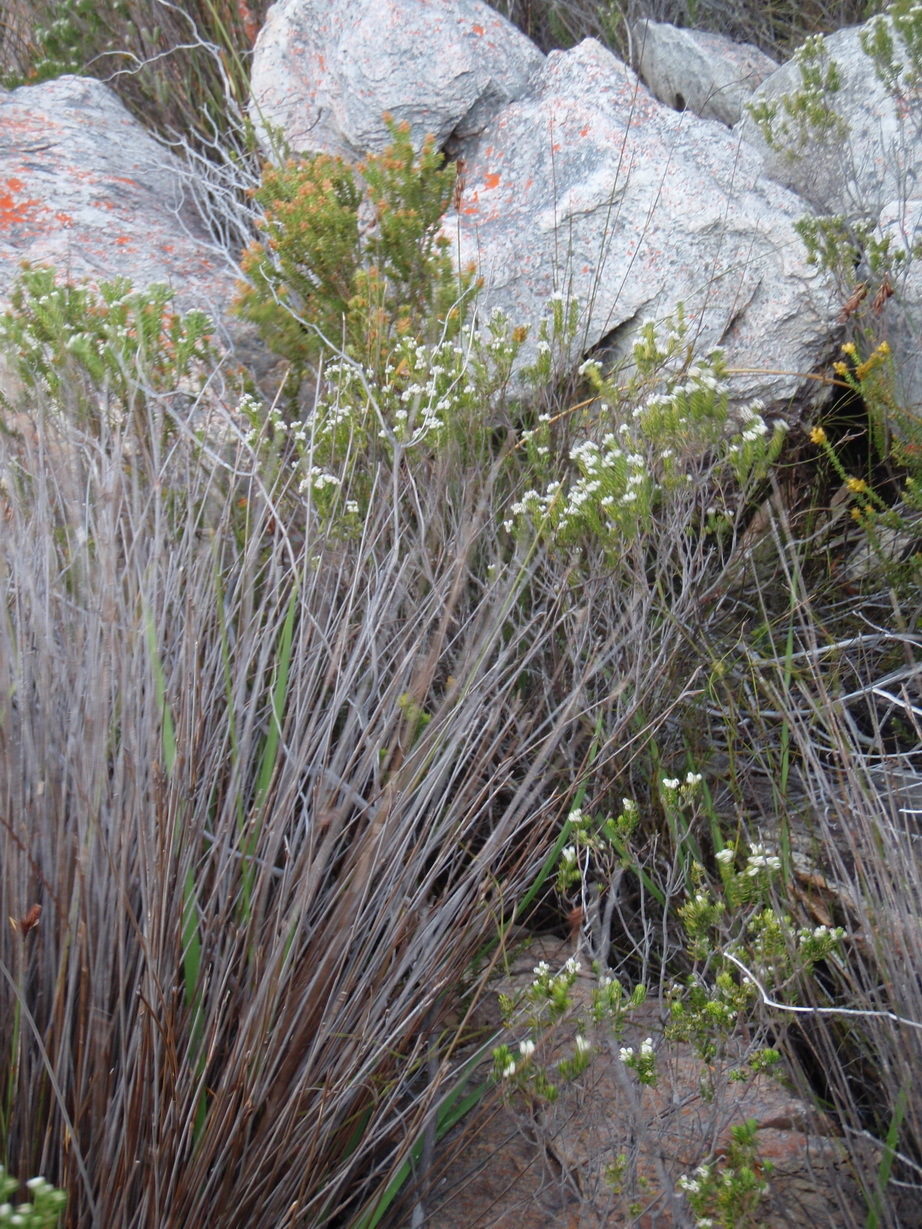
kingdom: Plantae
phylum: Tracheophyta
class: Magnoliopsida
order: Rosales
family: Rhamnaceae
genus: Phylica
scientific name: Phylica purpurea
